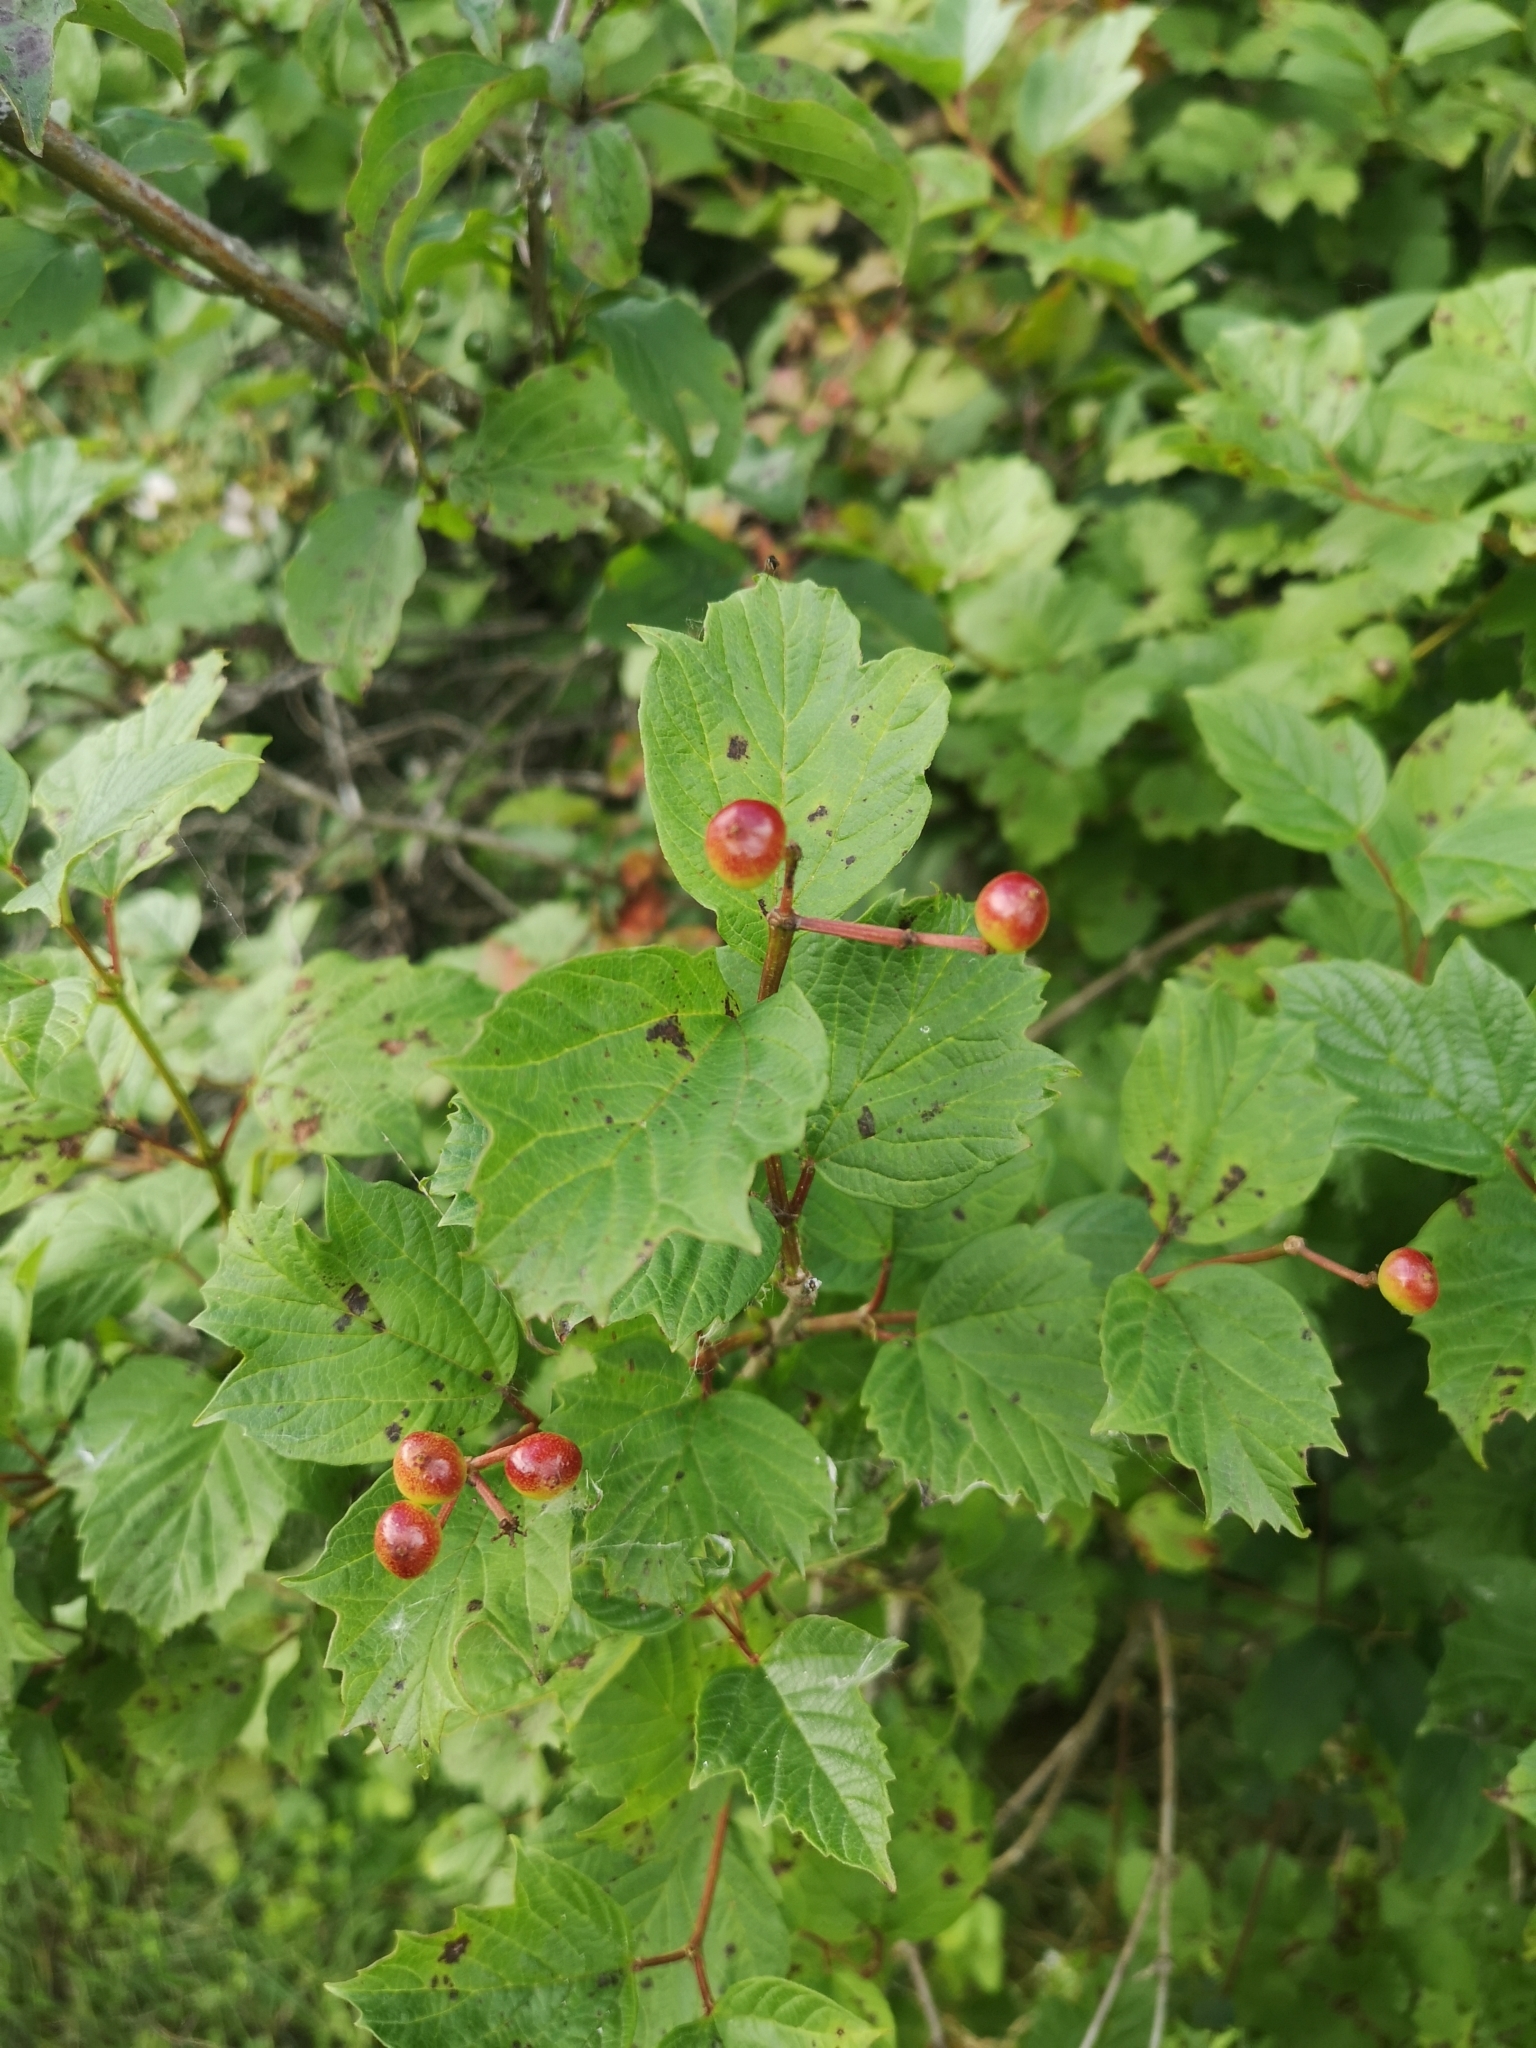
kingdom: Plantae
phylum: Tracheophyta
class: Magnoliopsida
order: Dipsacales
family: Viburnaceae
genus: Viburnum
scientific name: Viburnum opulus
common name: Guelder-rose
